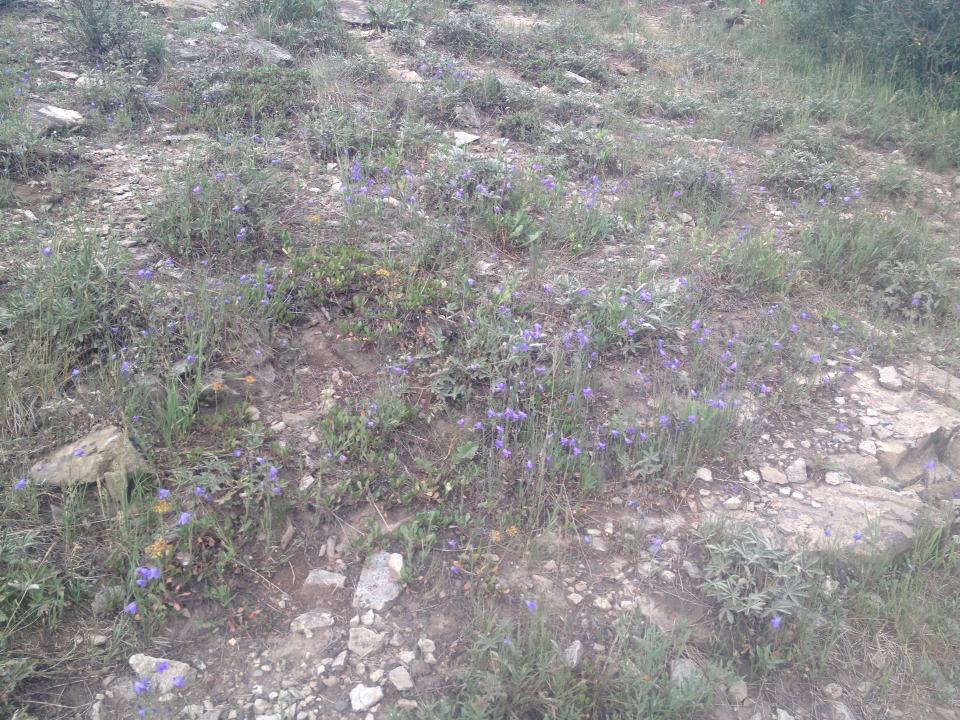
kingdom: Plantae
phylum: Tracheophyta
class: Magnoliopsida
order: Asterales
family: Campanulaceae
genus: Campanula
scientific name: Campanula petiolata
